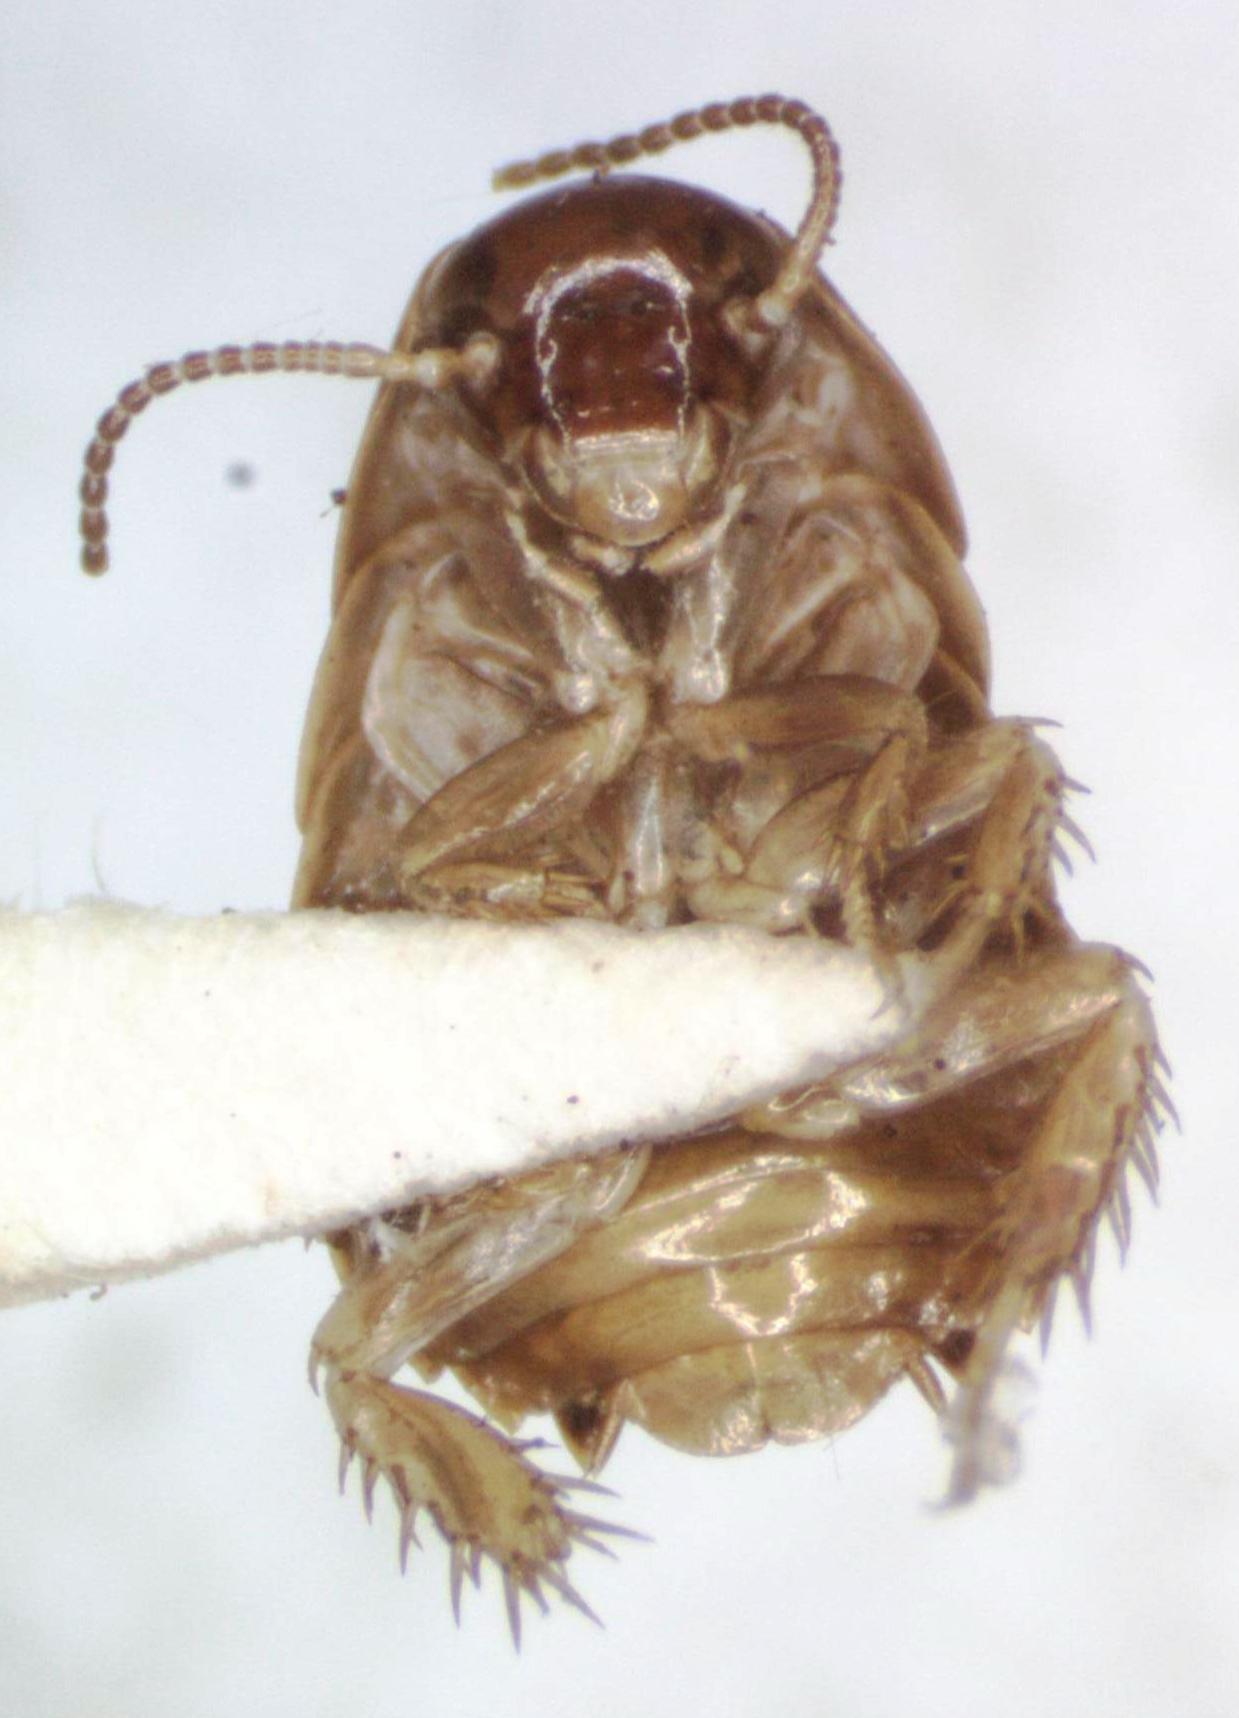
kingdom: Animalia
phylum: Arthropoda
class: Insecta
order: Blattodea
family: Blaberidae
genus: Pycnoscelus
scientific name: Pycnoscelus surinamensis
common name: Surinam cockroach
